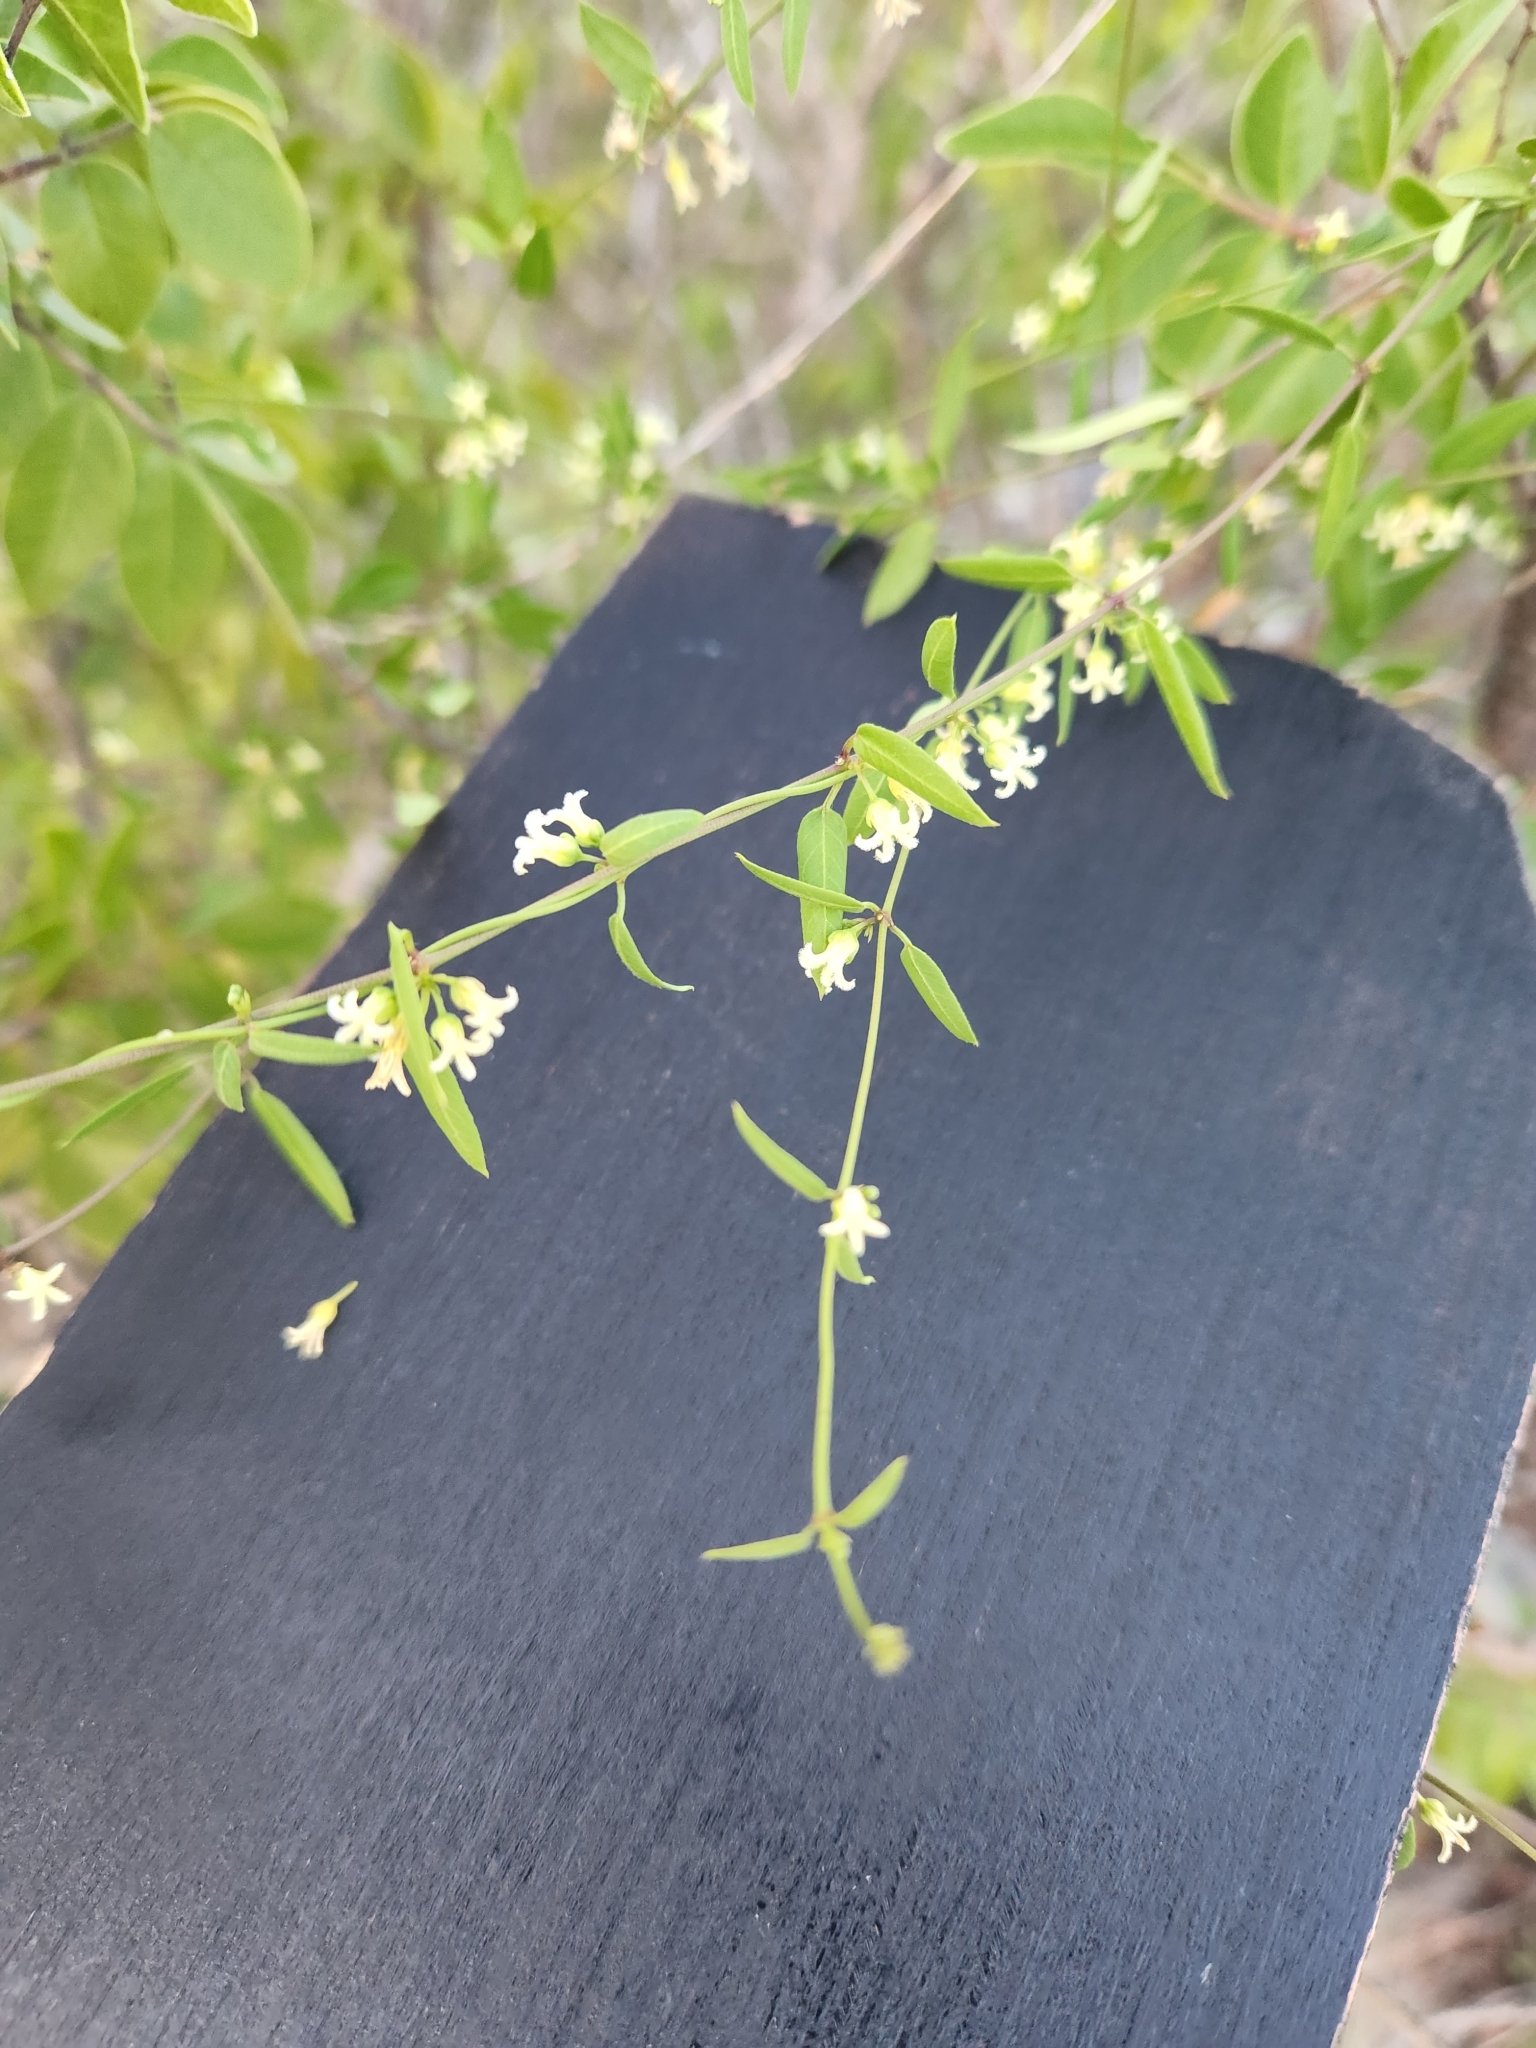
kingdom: Plantae
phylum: Tracheophyta
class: Magnoliopsida
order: Gentianales
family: Apocynaceae
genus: Metastelma
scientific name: Metastelma barbigerum
